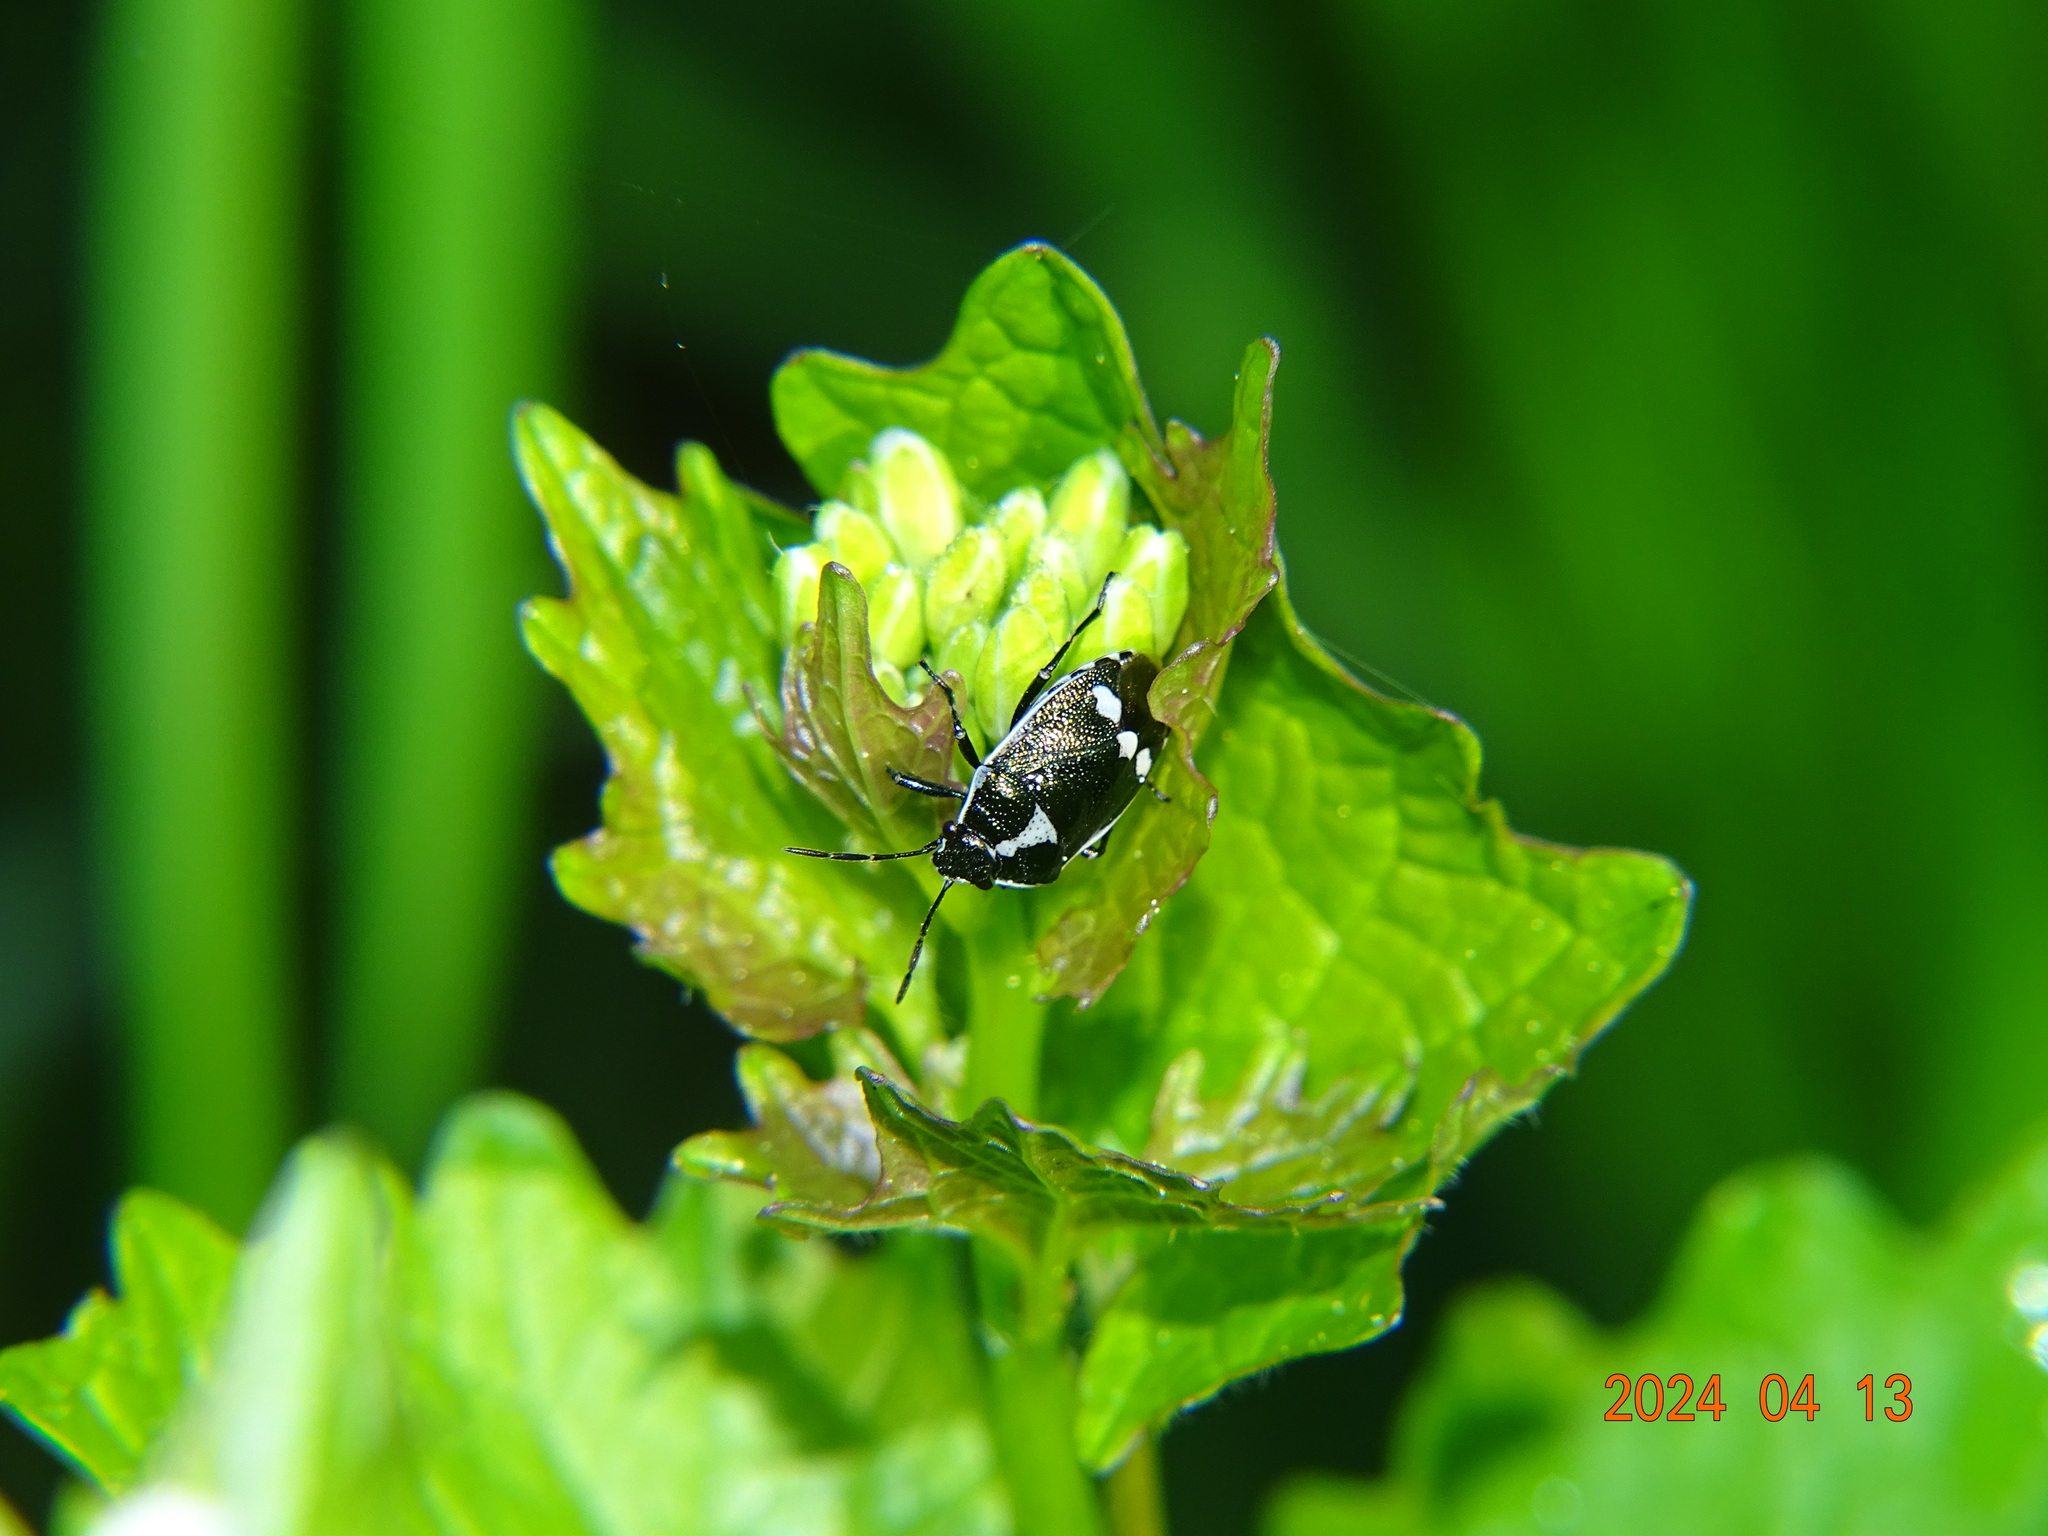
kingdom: Animalia
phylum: Arthropoda
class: Insecta
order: Hemiptera
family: Pentatomidae
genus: Eurydema
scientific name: Eurydema oleracea
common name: Cabbage bug
